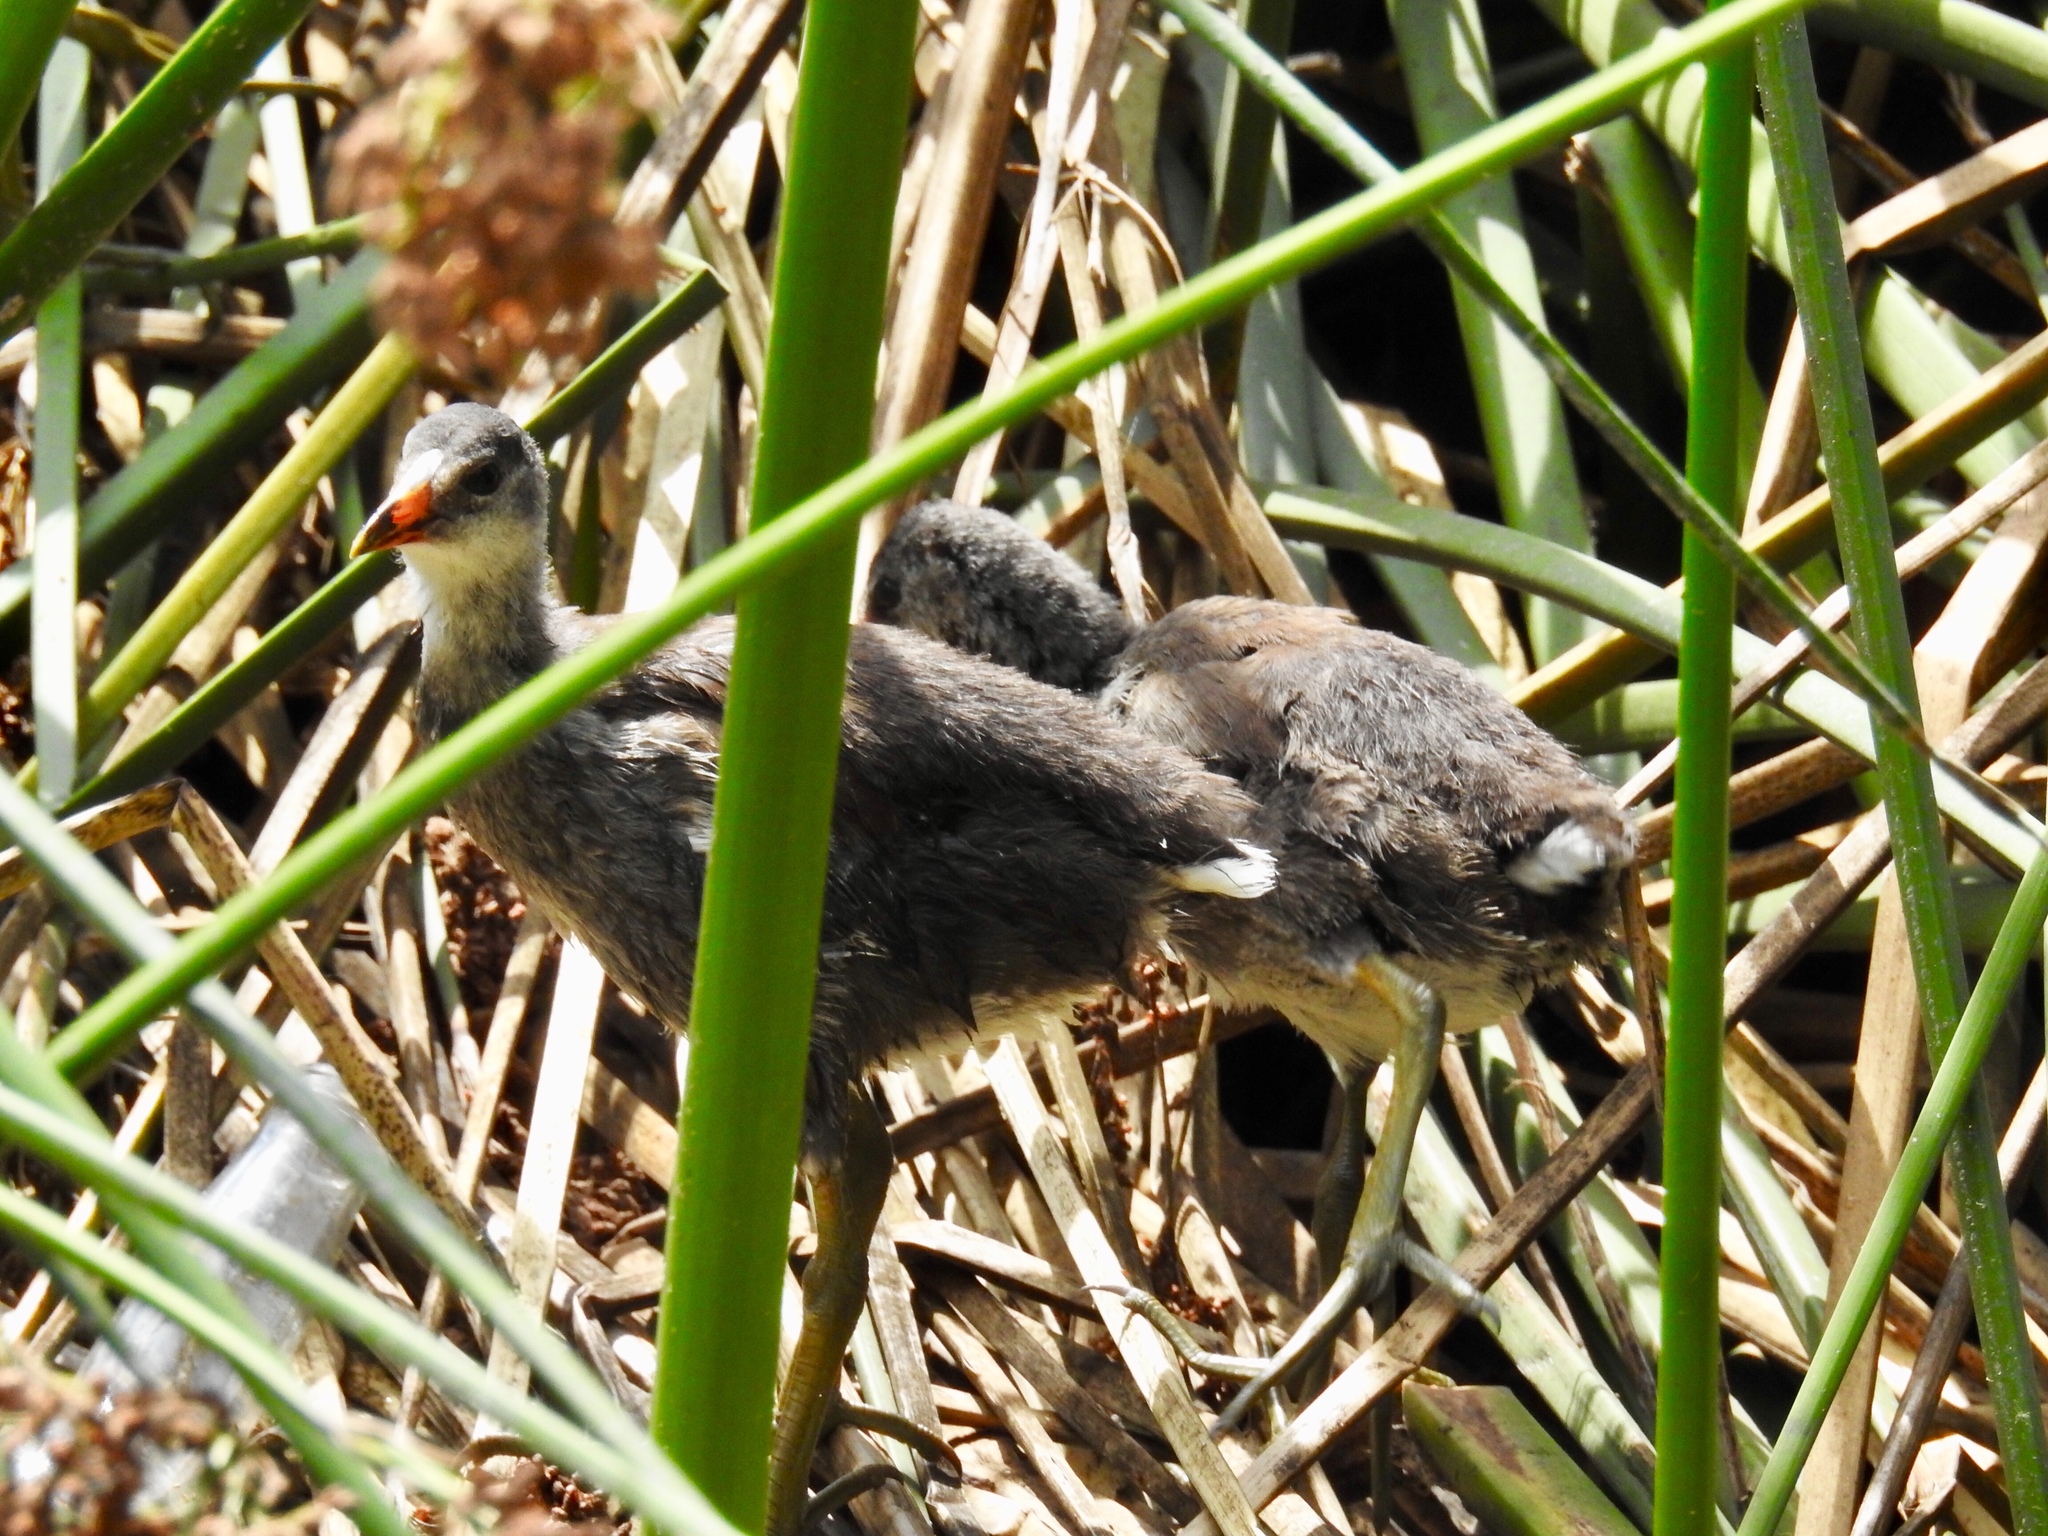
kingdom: Animalia
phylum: Chordata
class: Aves
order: Gruiformes
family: Rallidae
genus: Gallinula
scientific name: Gallinula chloropus
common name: Common moorhen
